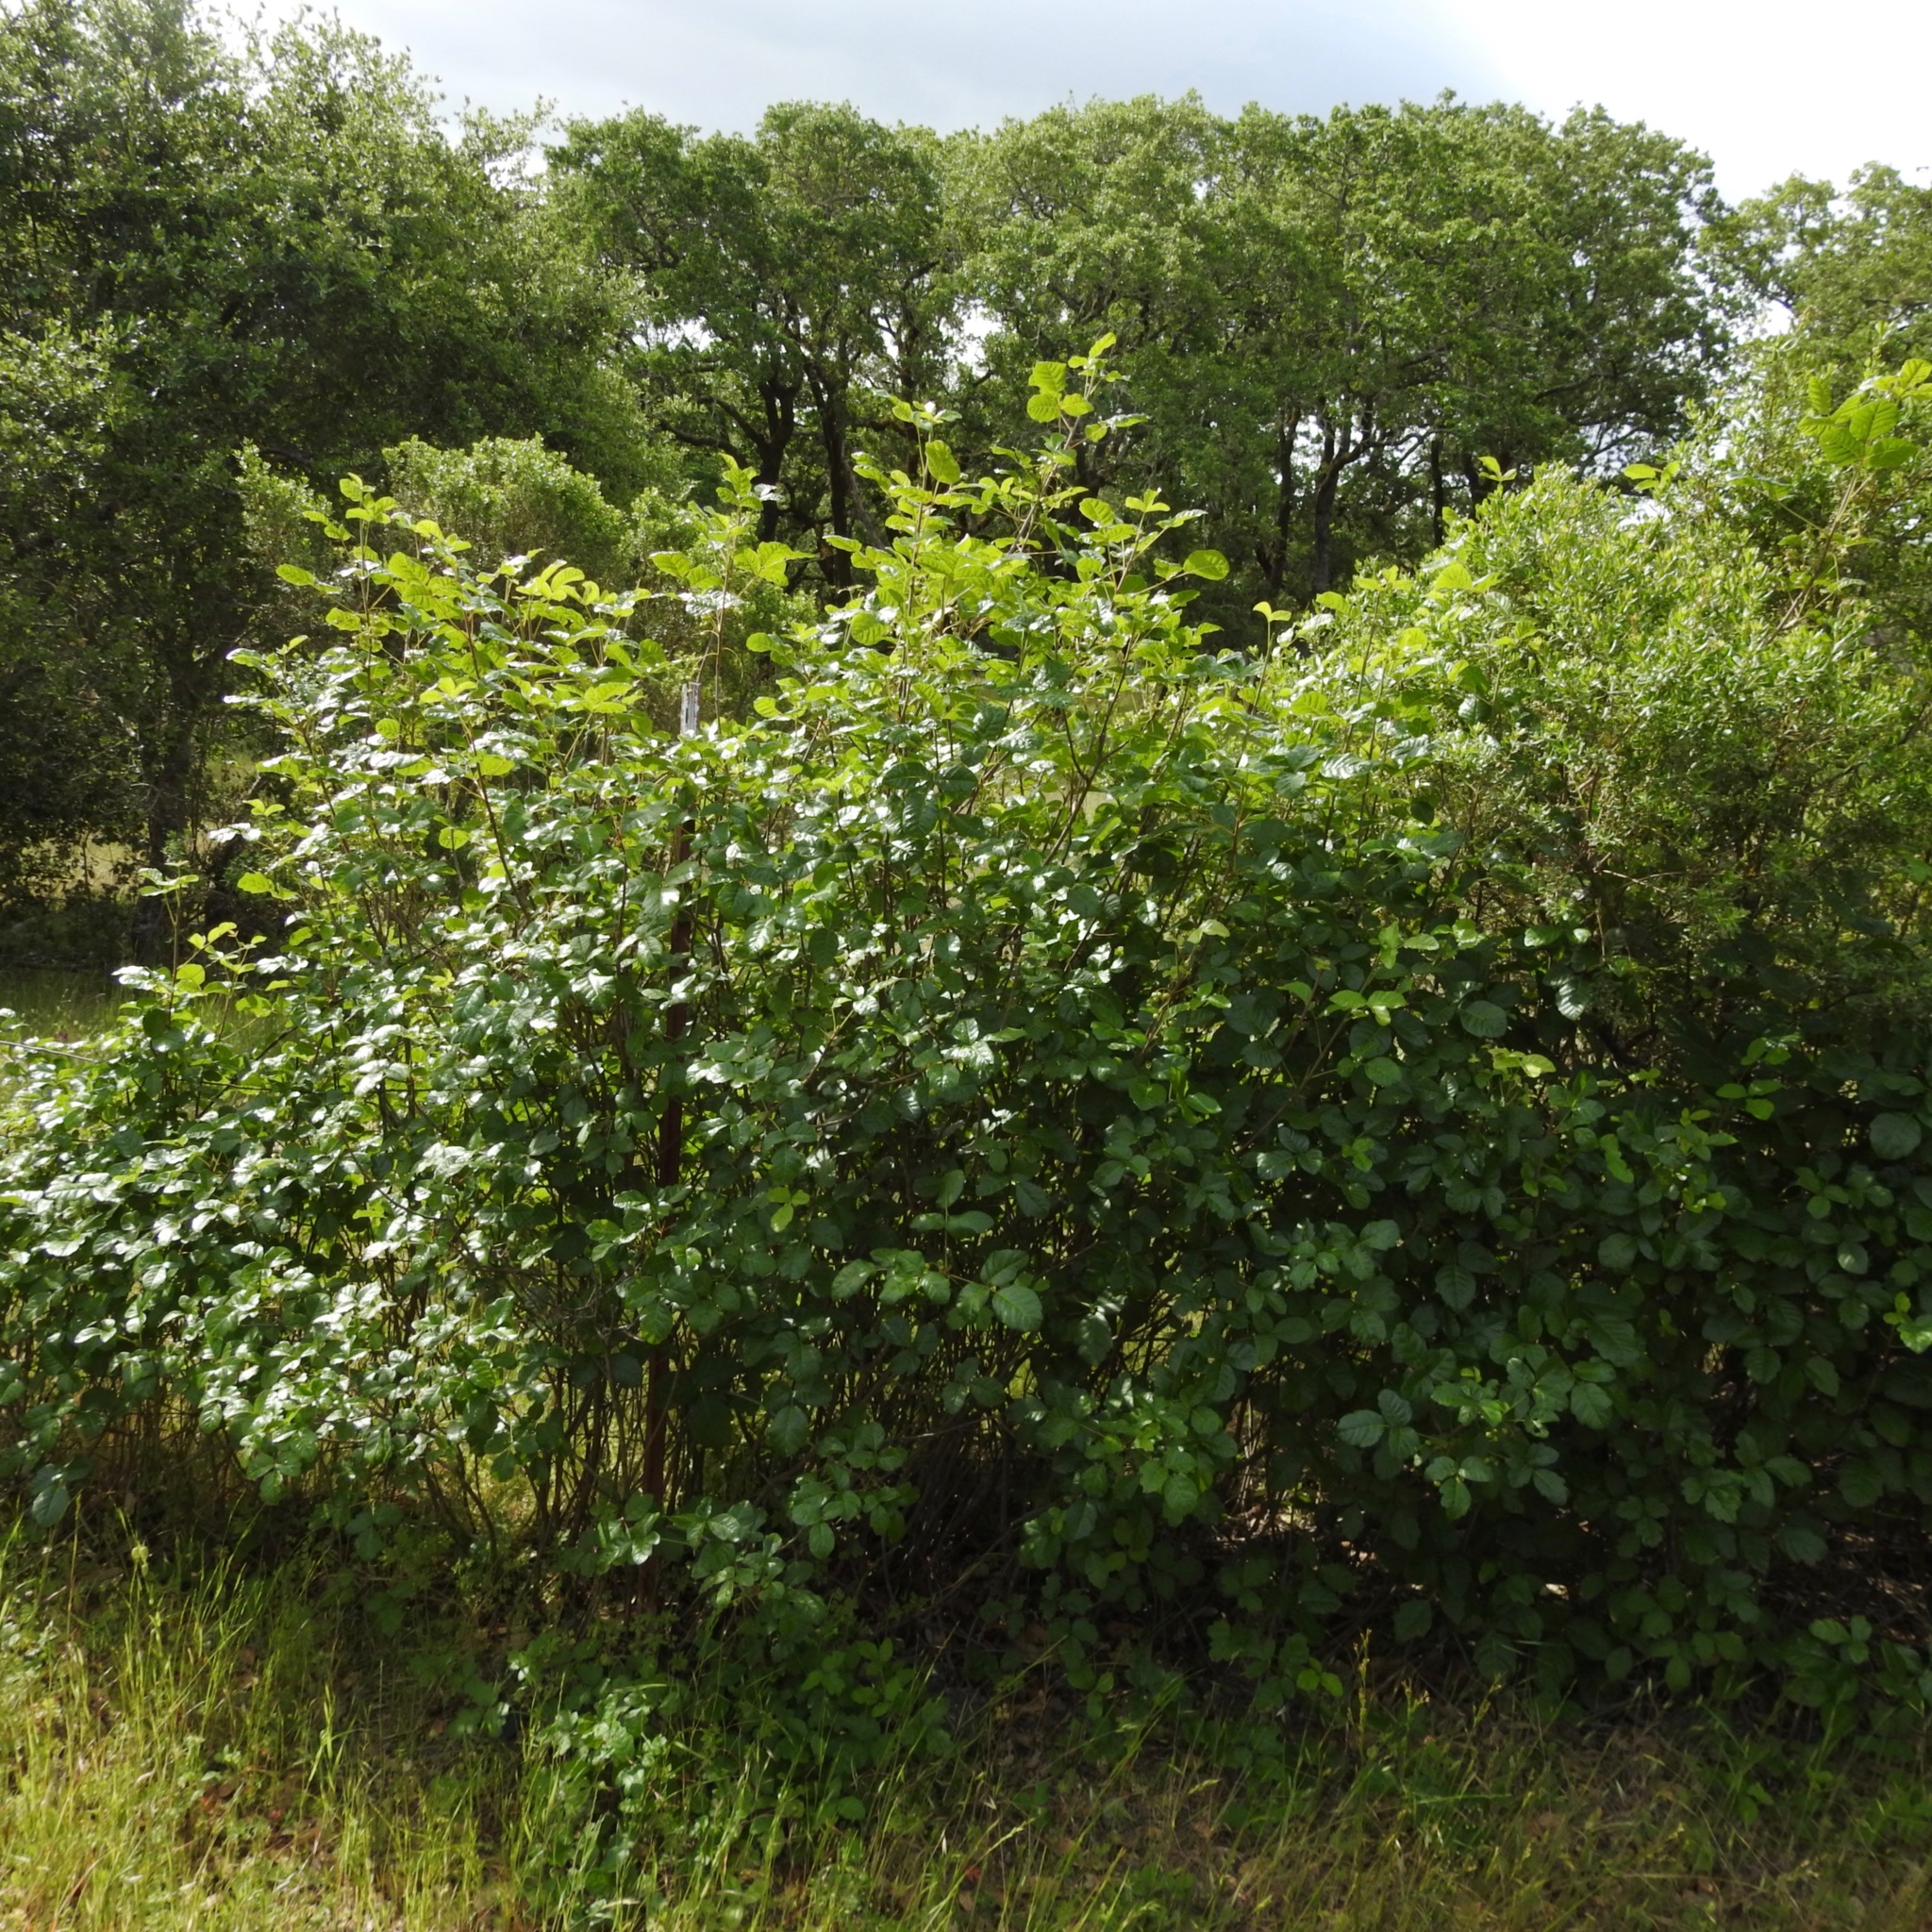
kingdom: Plantae
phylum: Tracheophyta
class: Magnoliopsida
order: Sapindales
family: Anacardiaceae
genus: Toxicodendron
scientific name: Toxicodendron diversilobum
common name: Pacific poison-oak
